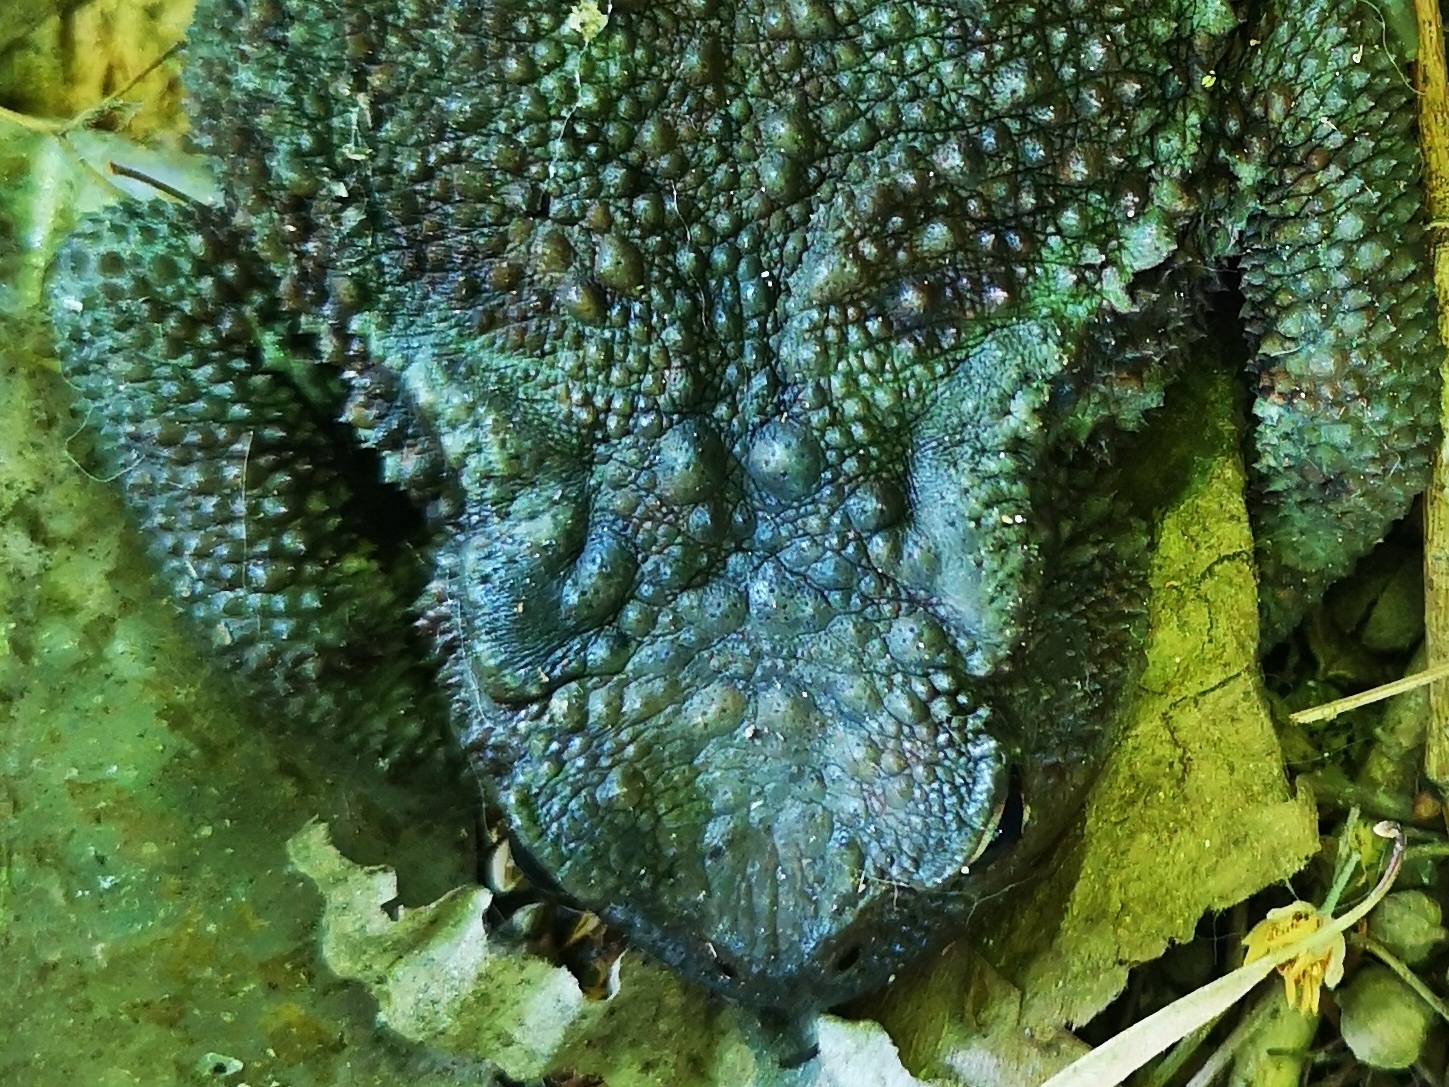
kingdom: Animalia
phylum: Chordata
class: Amphibia
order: Anura
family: Bufonidae
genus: Bufo
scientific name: Bufo bufo
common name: Common toad
